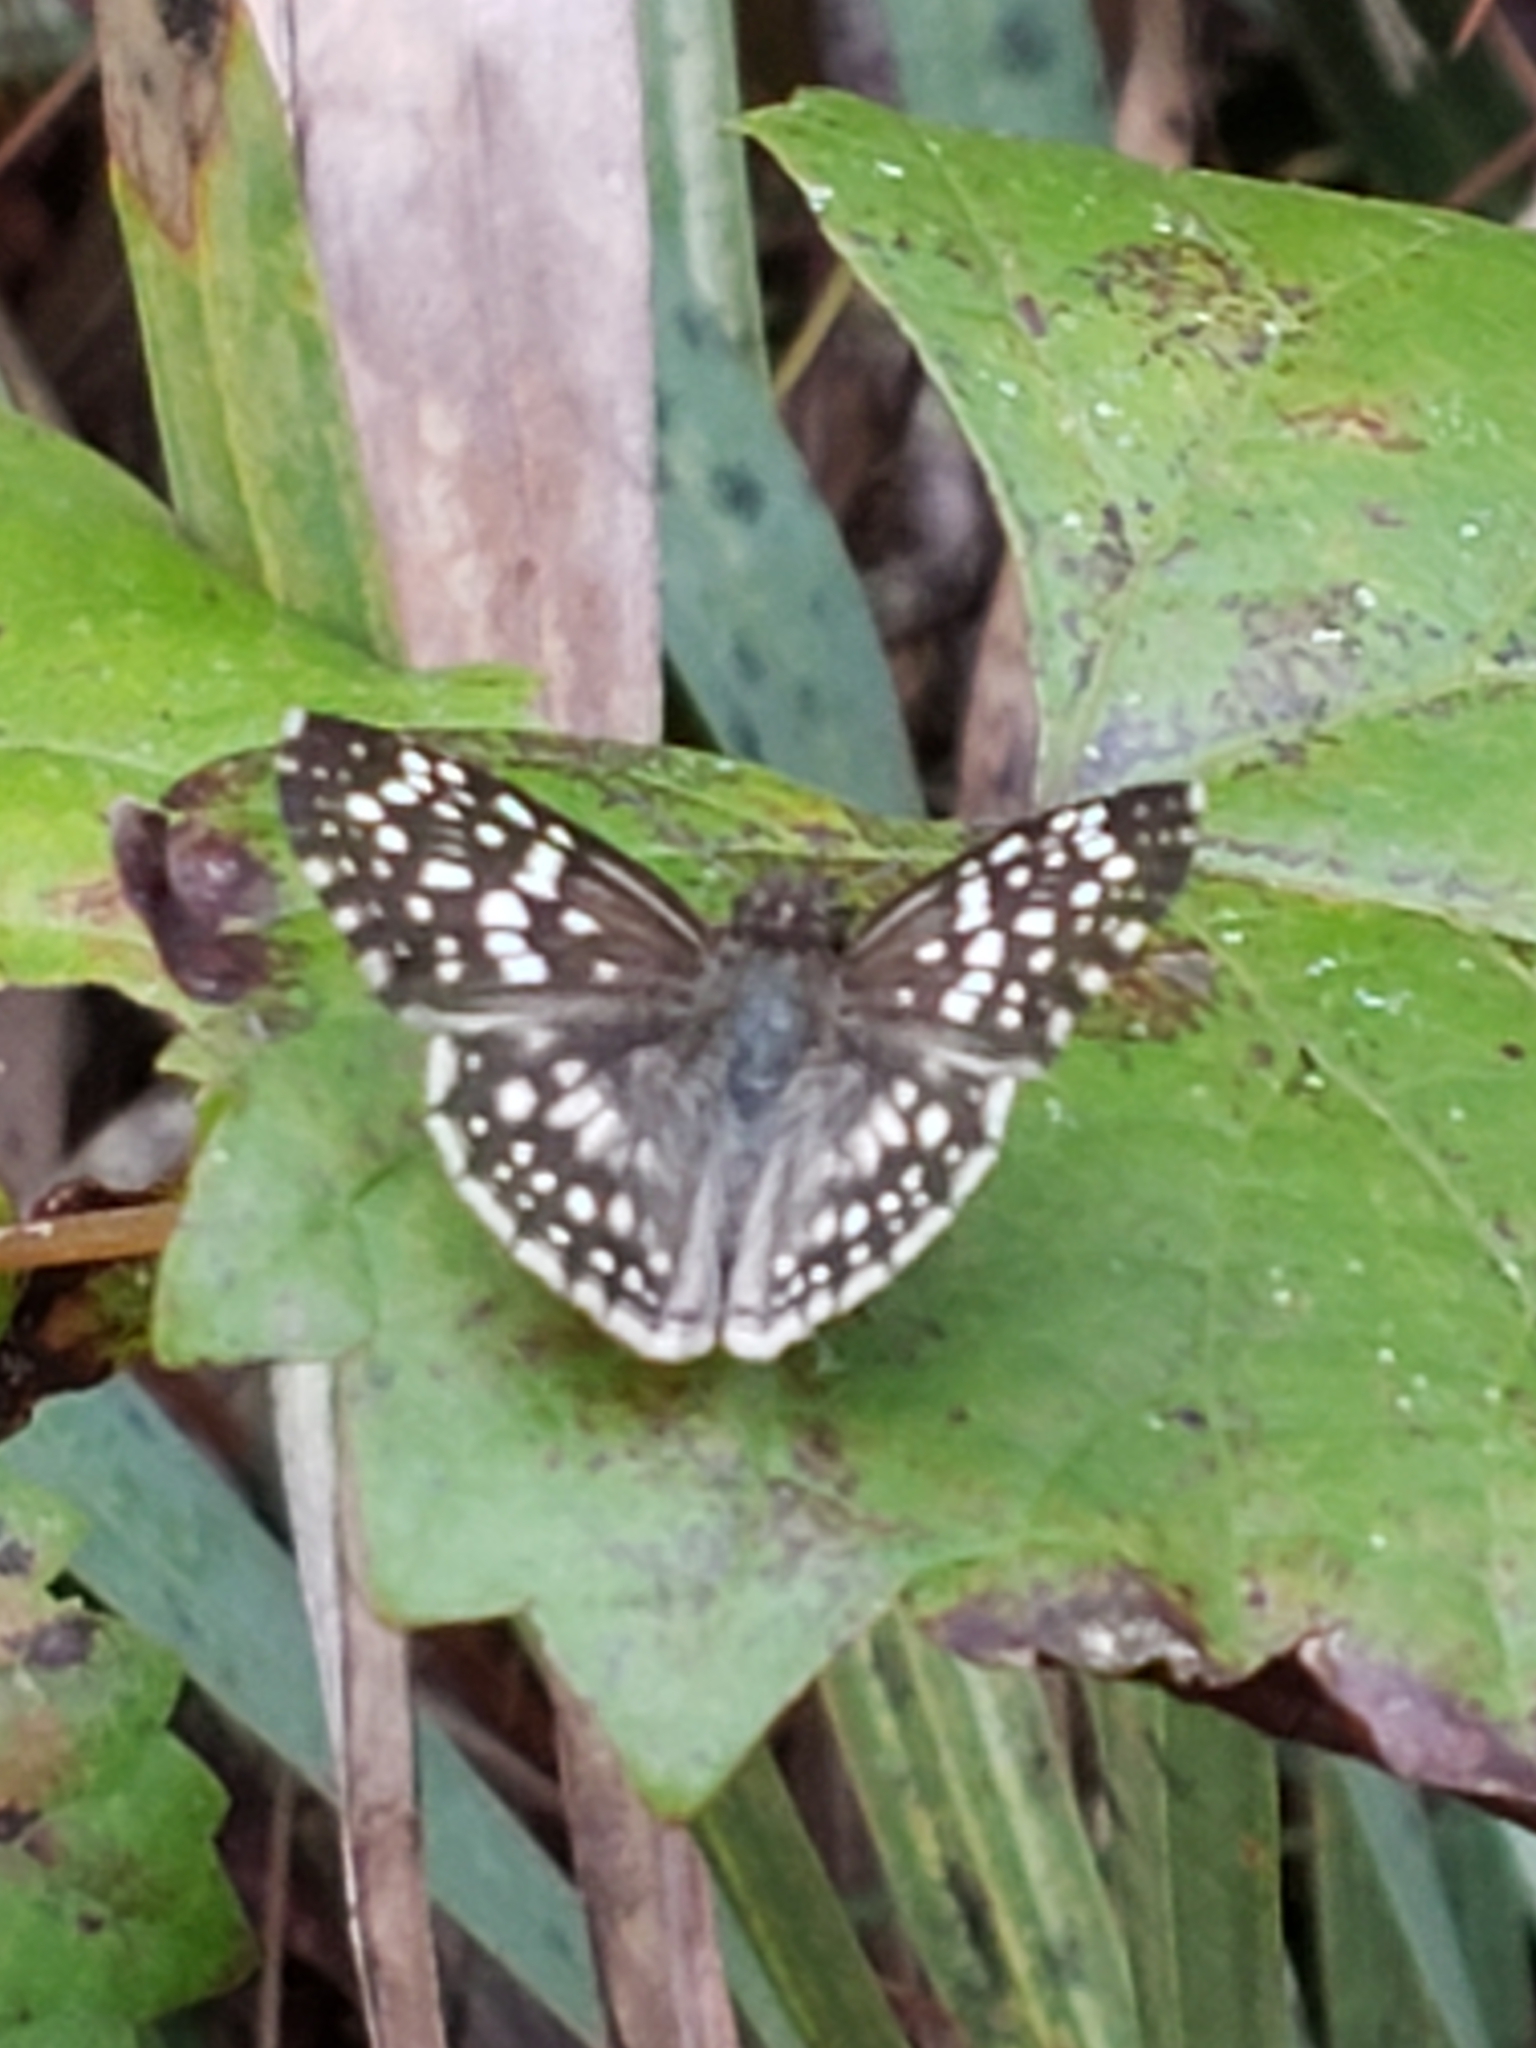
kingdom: Animalia
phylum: Arthropoda
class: Insecta
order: Lepidoptera
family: Hesperiidae
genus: Pyrgus
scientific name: Pyrgus oileus
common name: Tropical checkered-skipper
